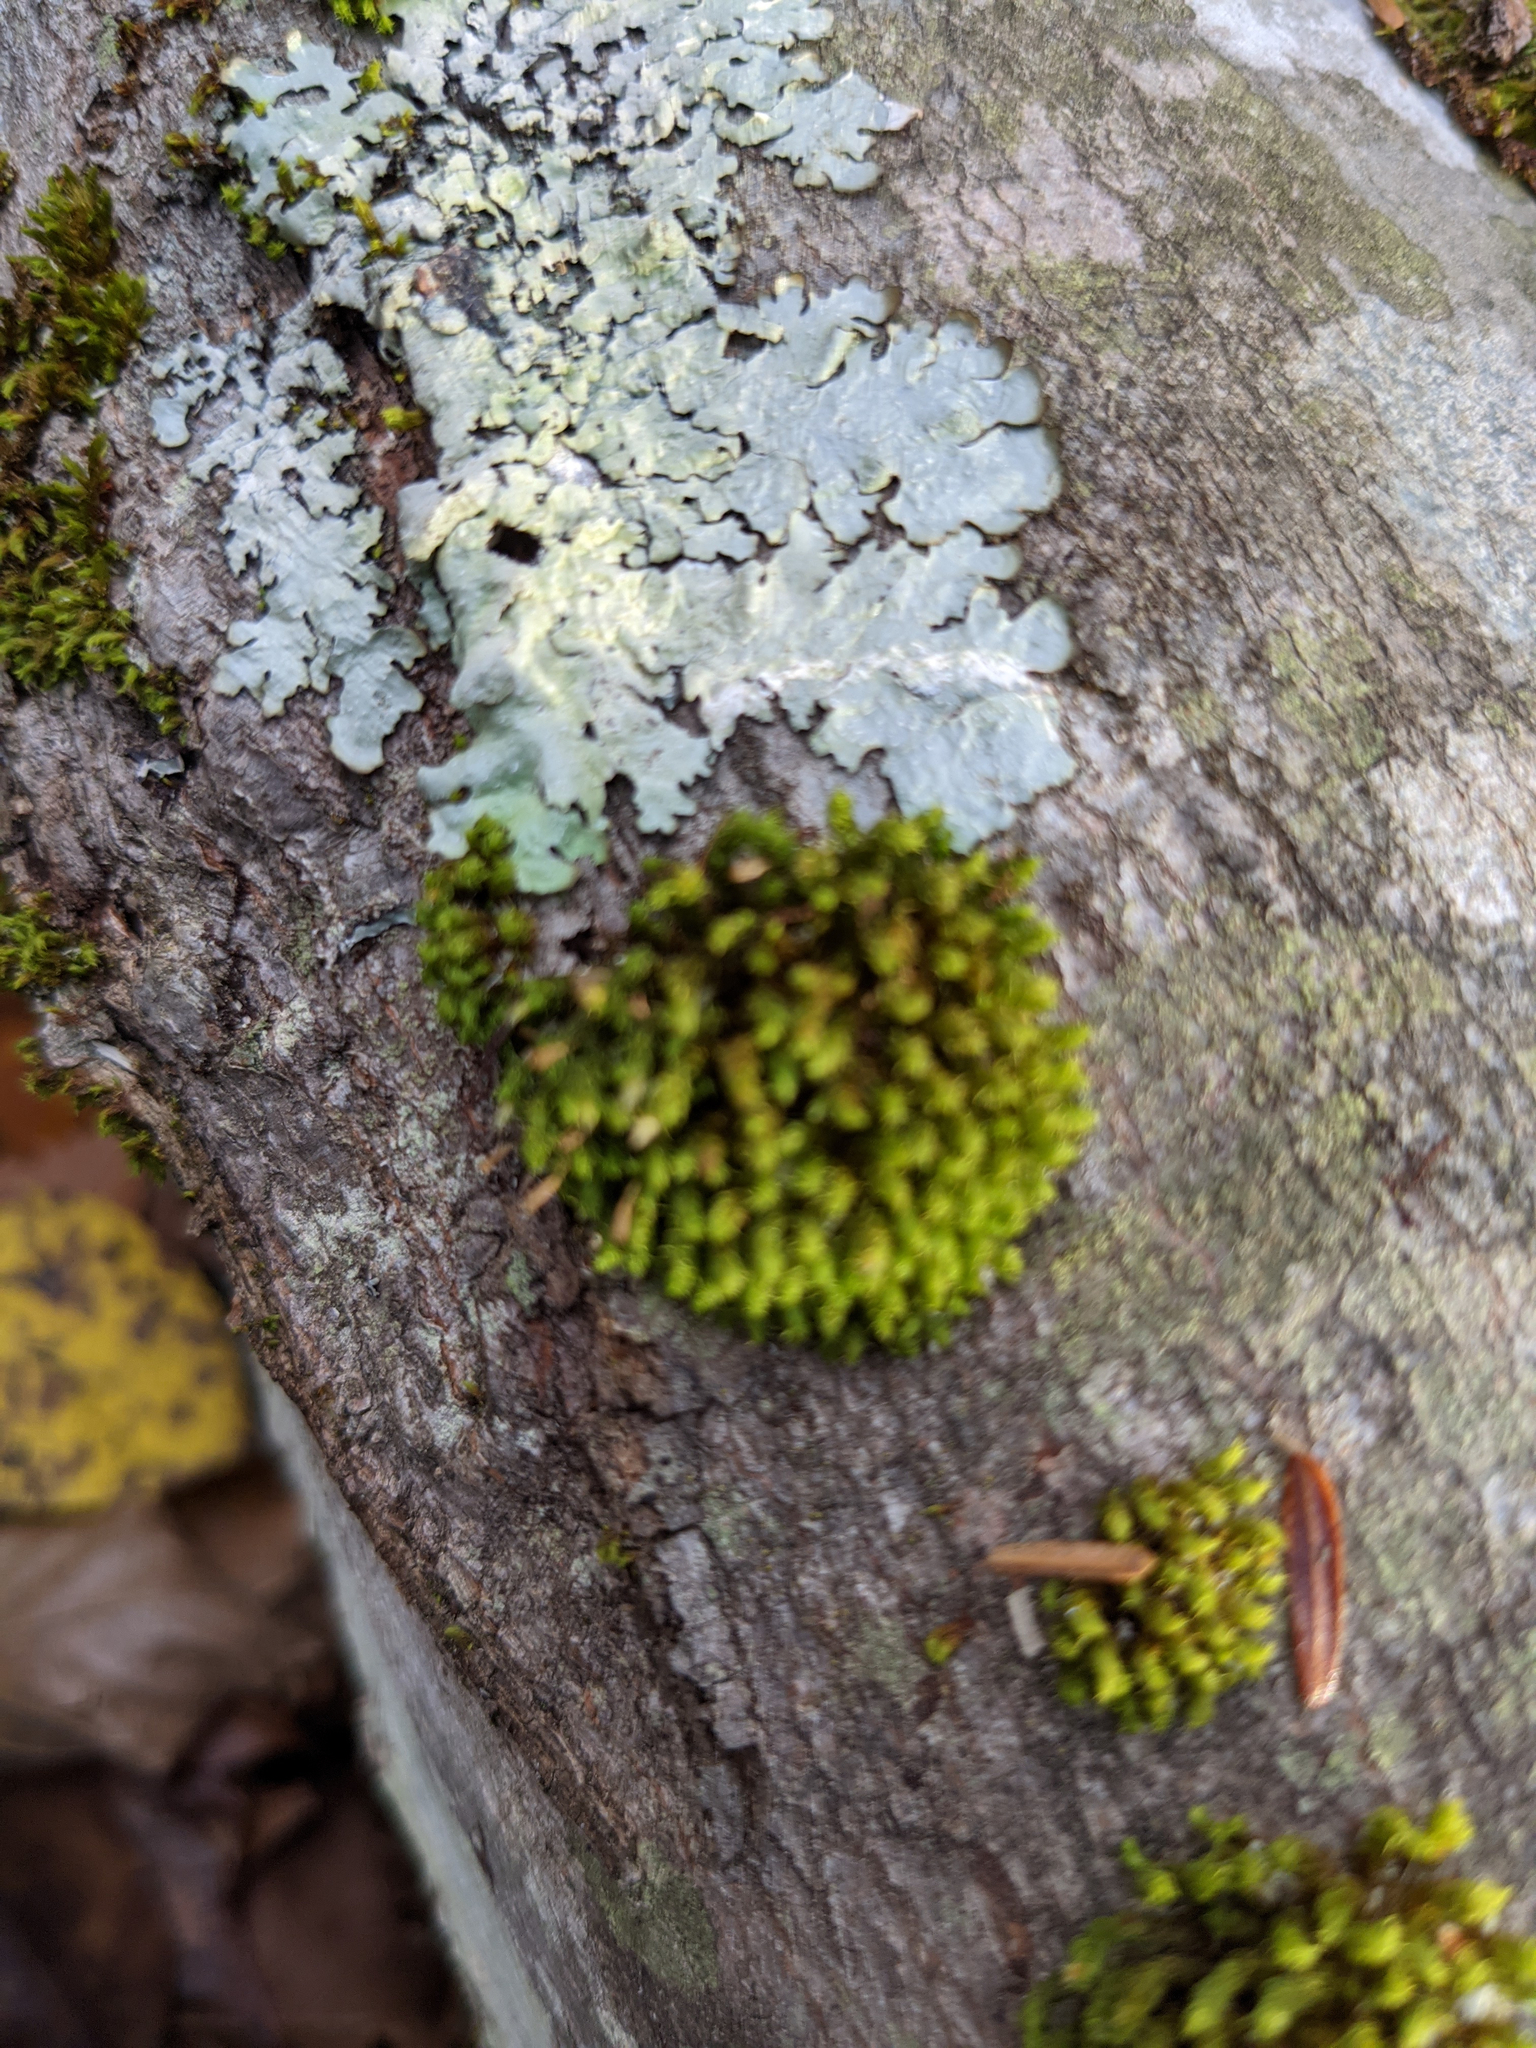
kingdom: Plantae
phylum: Bryophyta
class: Bryopsida
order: Orthotrichales
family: Orthotrichaceae
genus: Ulota
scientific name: Ulota crispa
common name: Crisped pincushion moss
